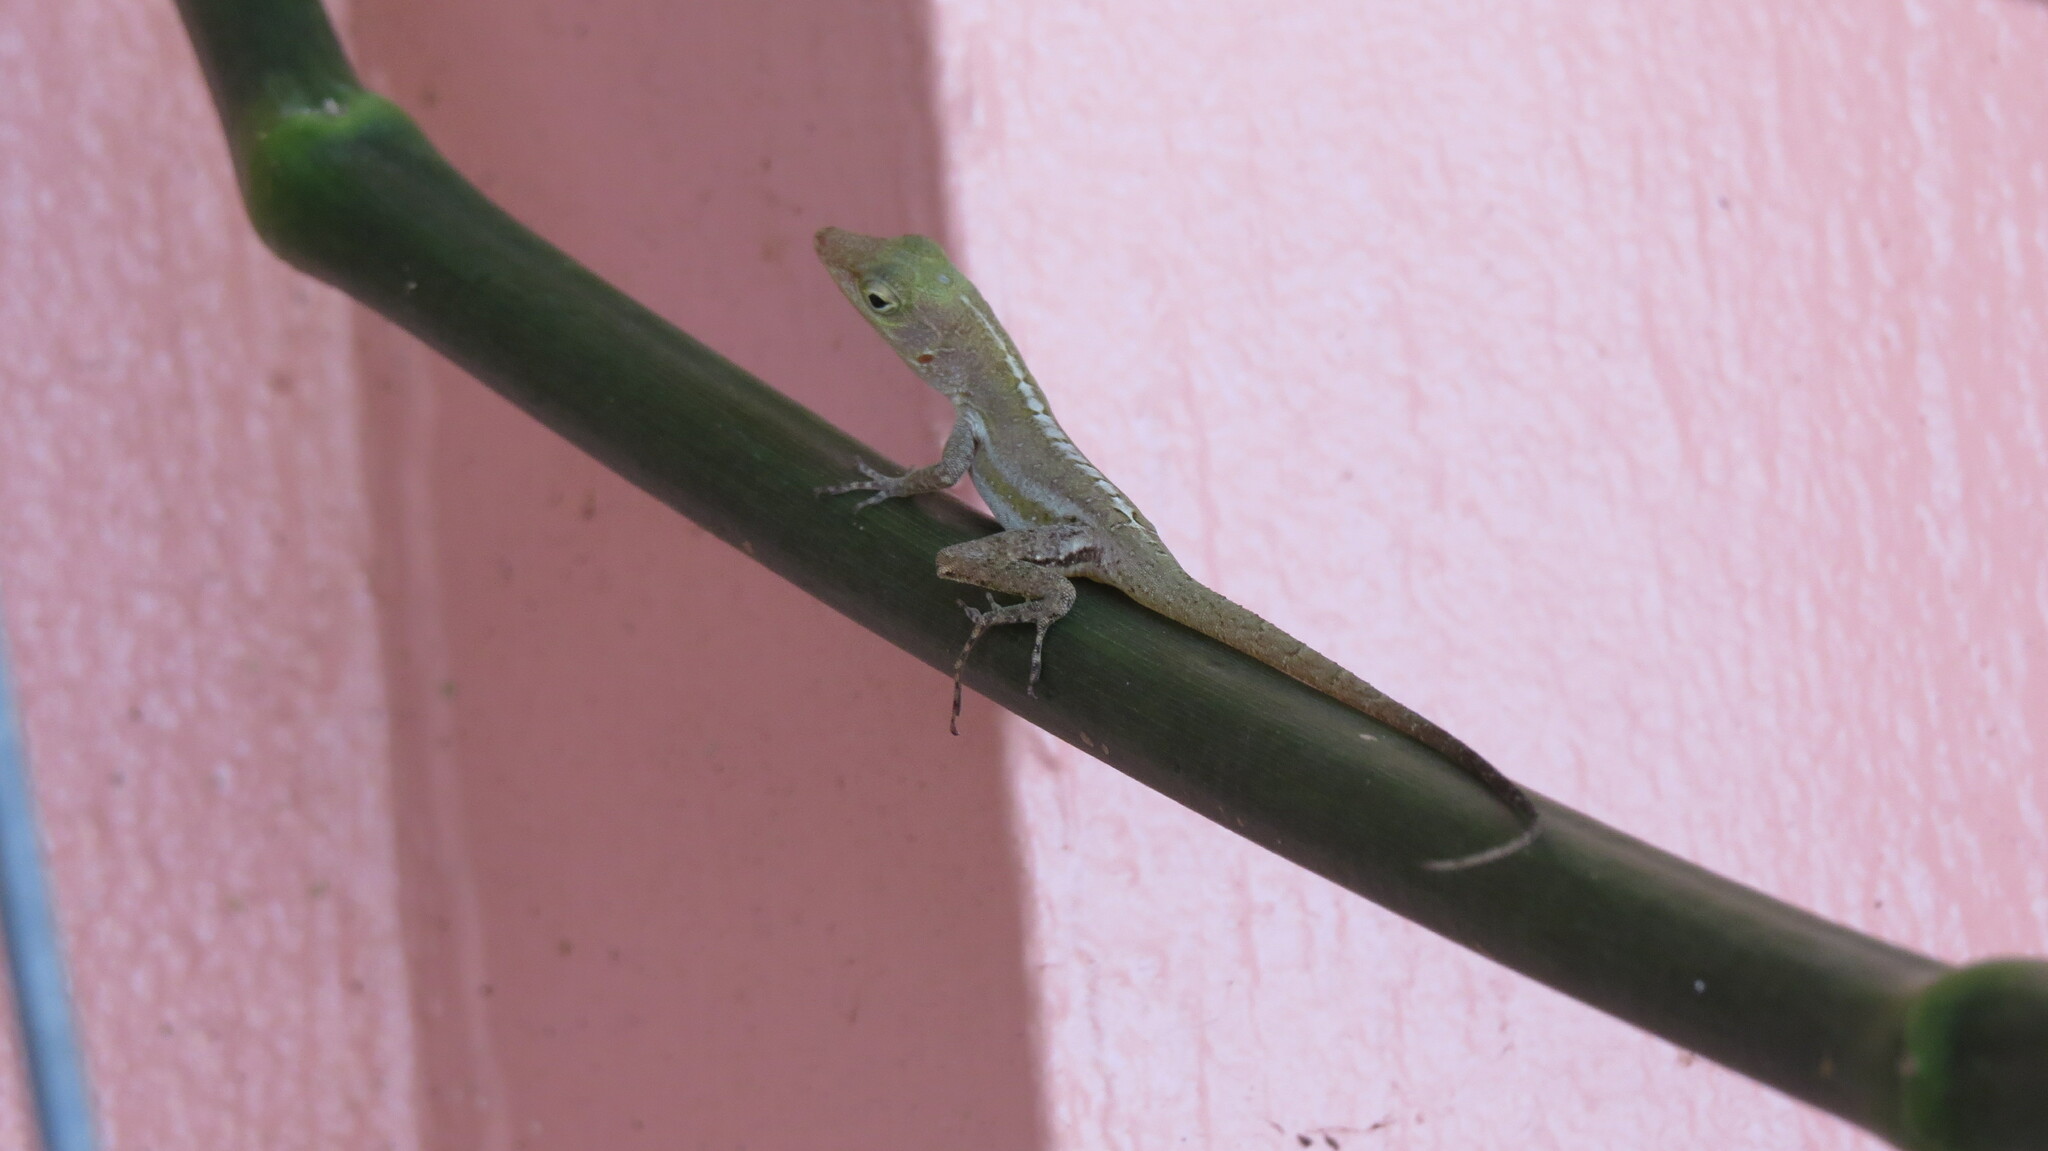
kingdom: Animalia
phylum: Chordata
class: Squamata
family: Dactyloidae
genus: Anolis
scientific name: Anolis acutus
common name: Saint croix's anole
